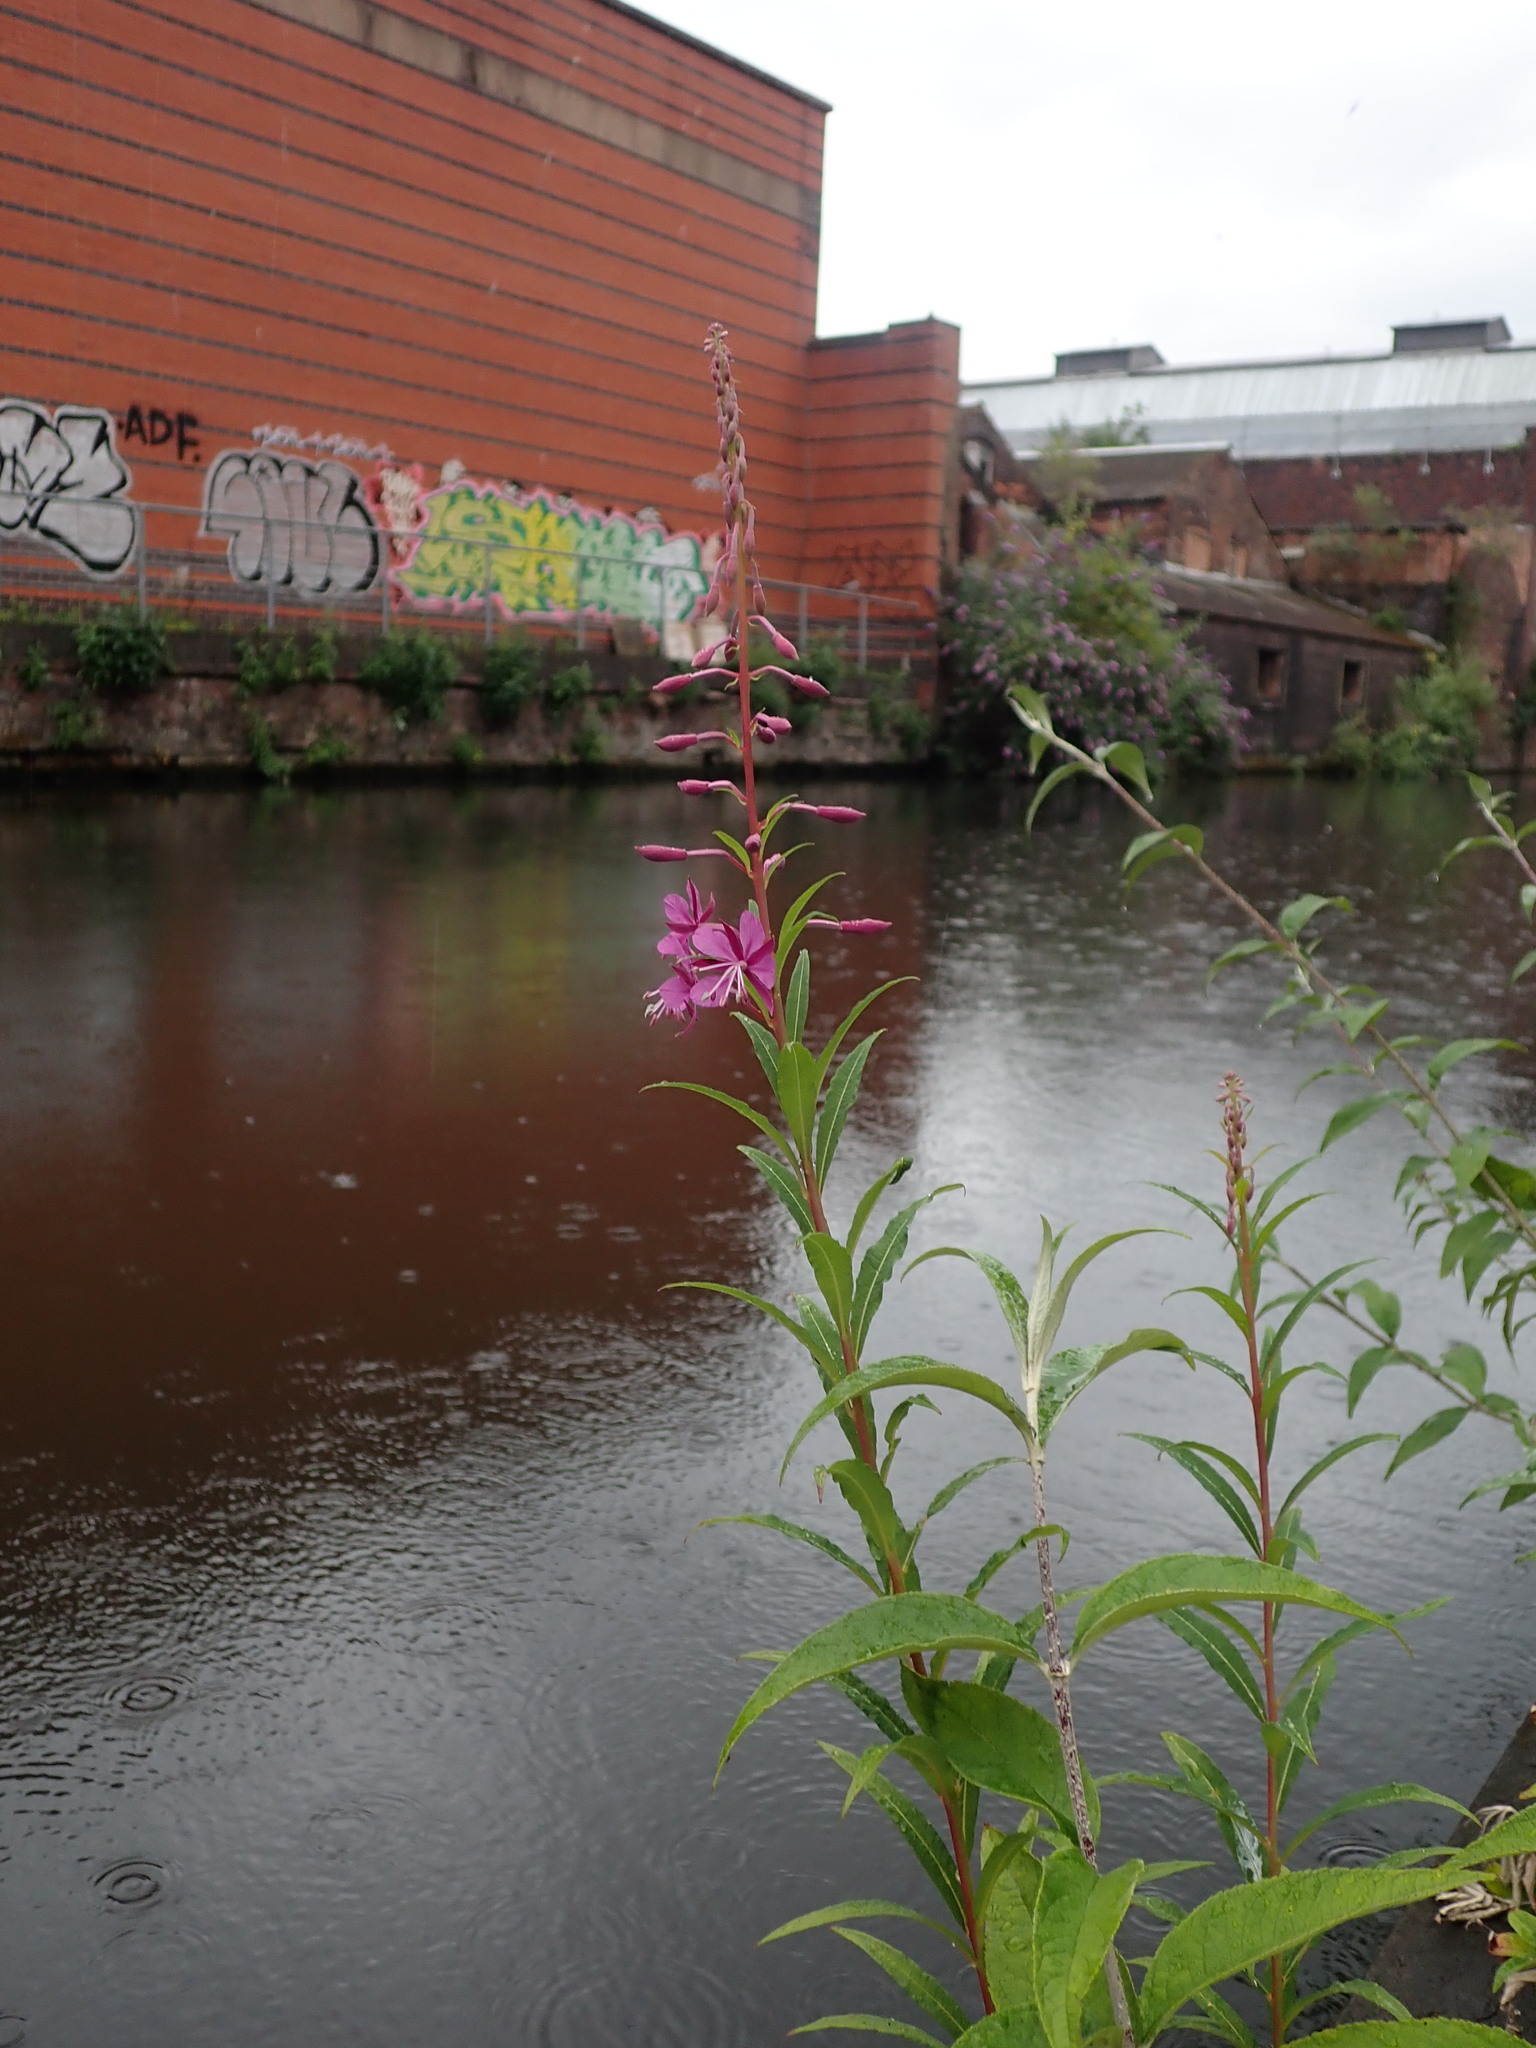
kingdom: Plantae
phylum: Tracheophyta
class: Magnoliopsida
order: Myrtales
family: Onagraceae
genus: Chamaenerion
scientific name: Chamaenerion angustifolium
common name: Fireweed
